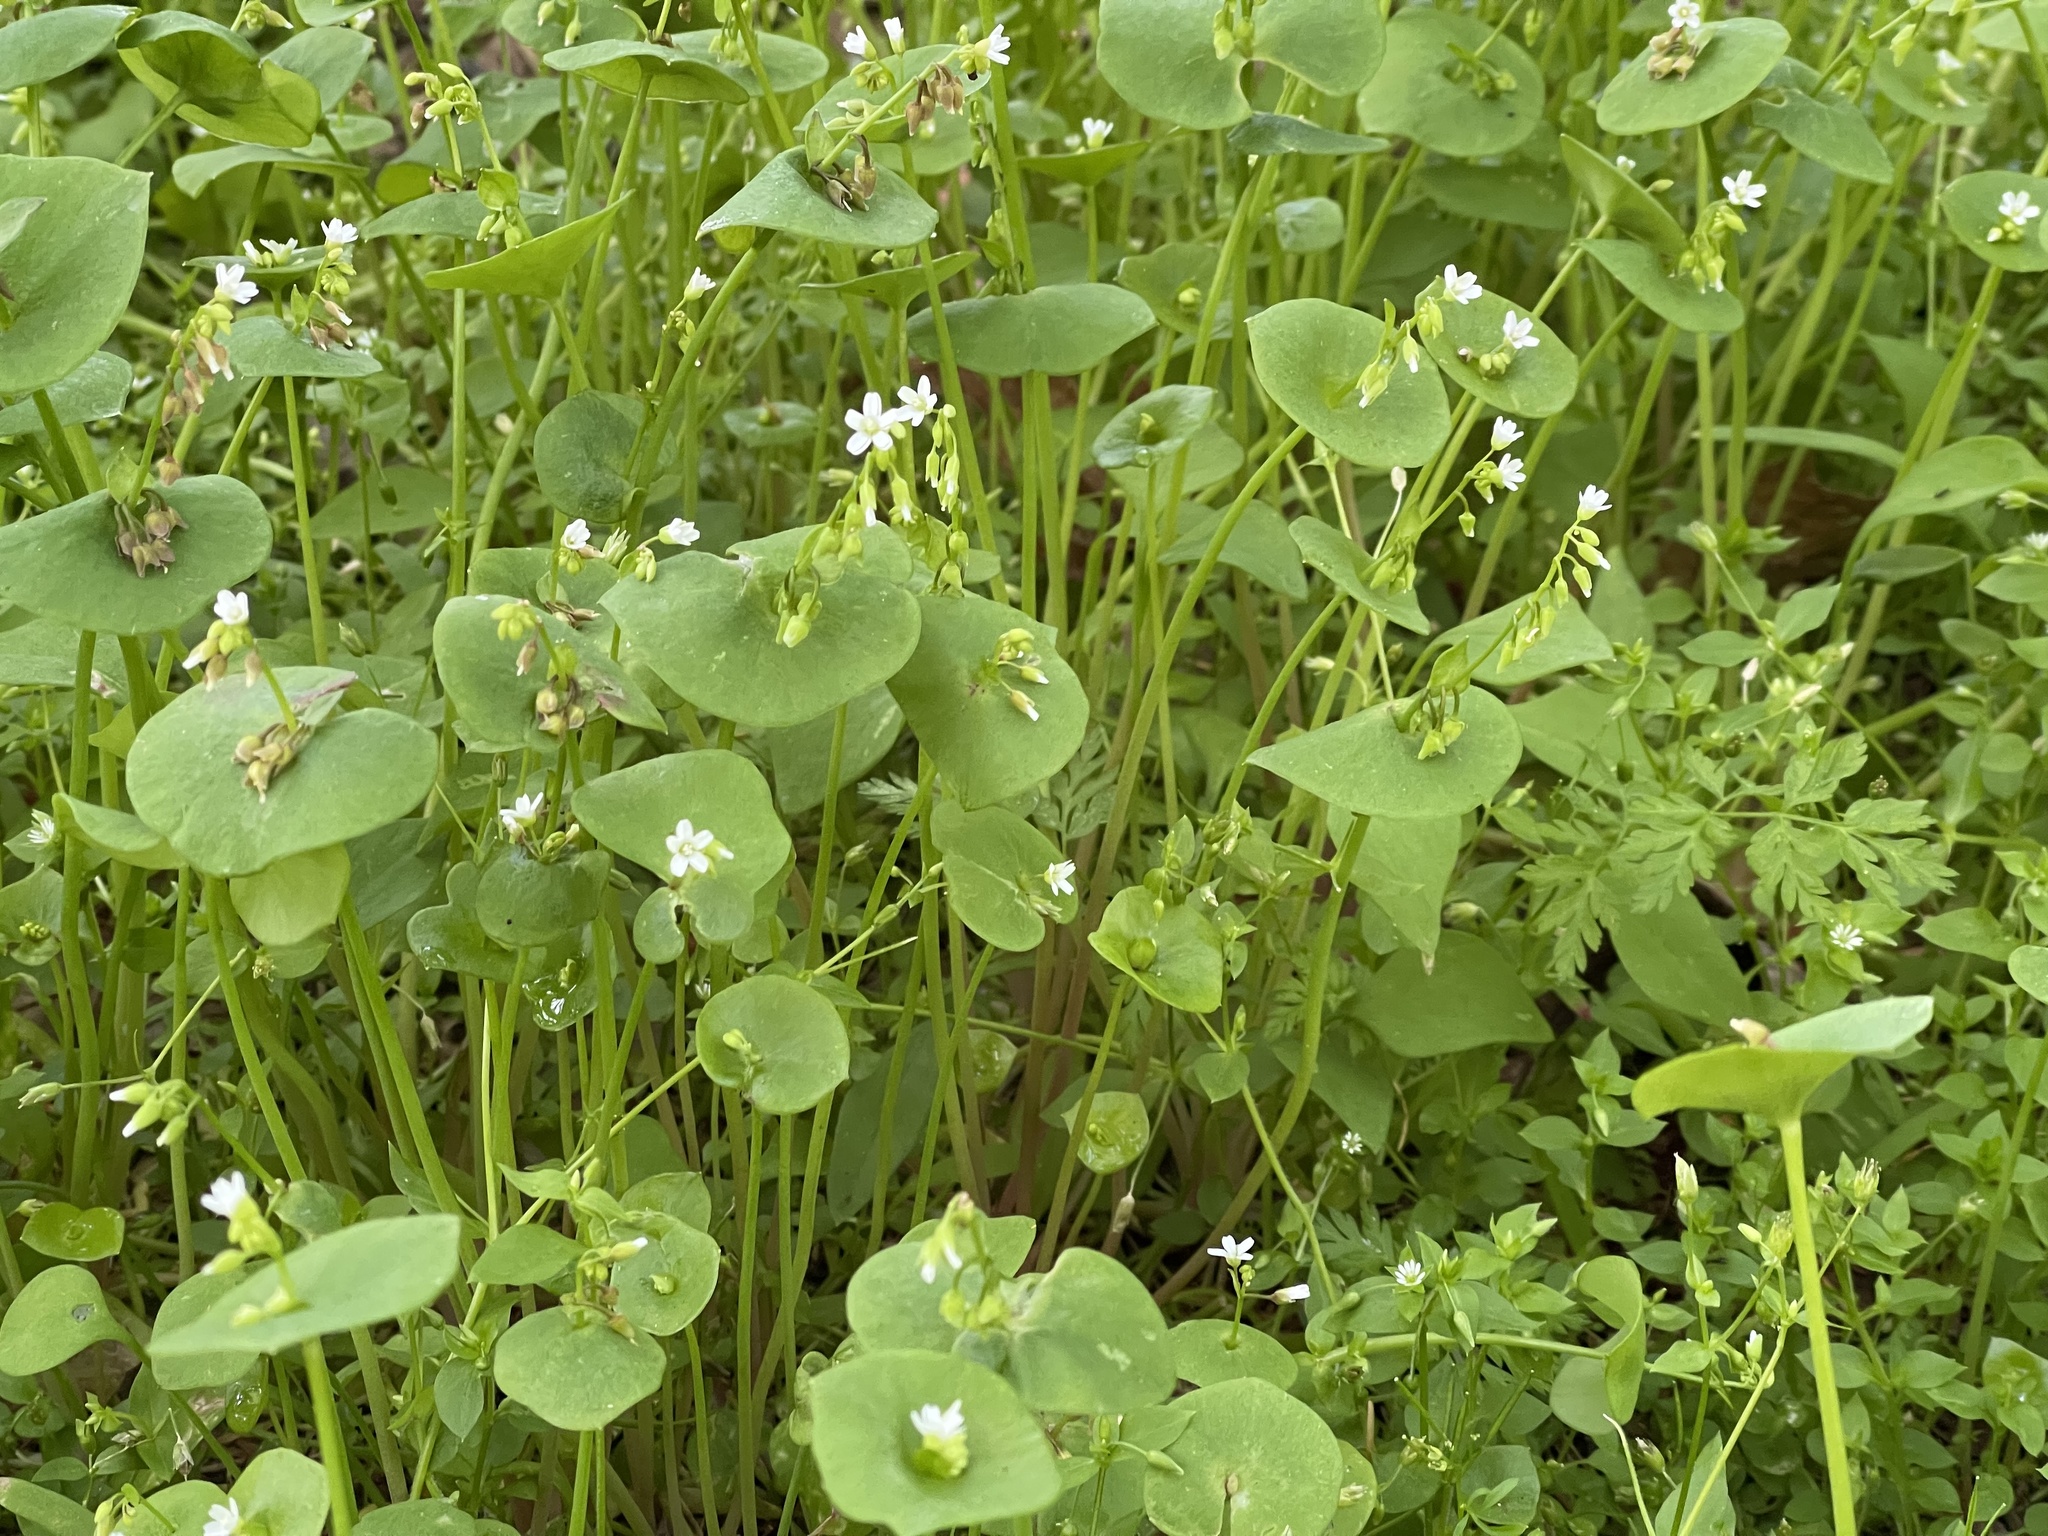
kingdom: Plantae
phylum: Tracheophyta
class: Magnoliopsida
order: Caryophyllales
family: Montiaceae
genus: Claytonia
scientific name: Claytonia perfoliata
